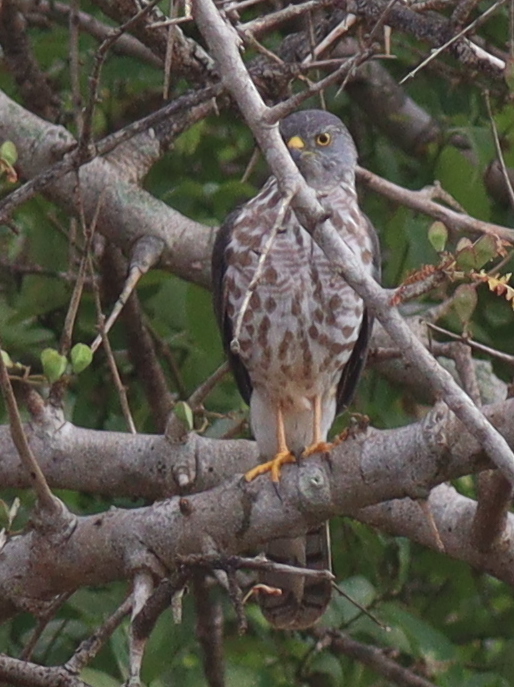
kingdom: Animalia
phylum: Chordata
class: Aves
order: Accipitriformes
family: Accipitridae
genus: Accipiter
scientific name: Accipiter badius
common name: Shikra
